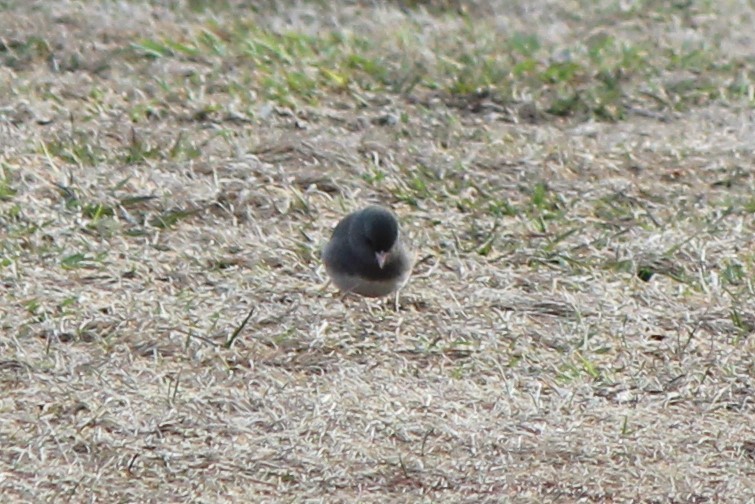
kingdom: Animalia
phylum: Chordata
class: Aves
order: Passeriformes
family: Passerellidae
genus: Junco
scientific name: Junco hyemalis
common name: Dark-eyed junco
